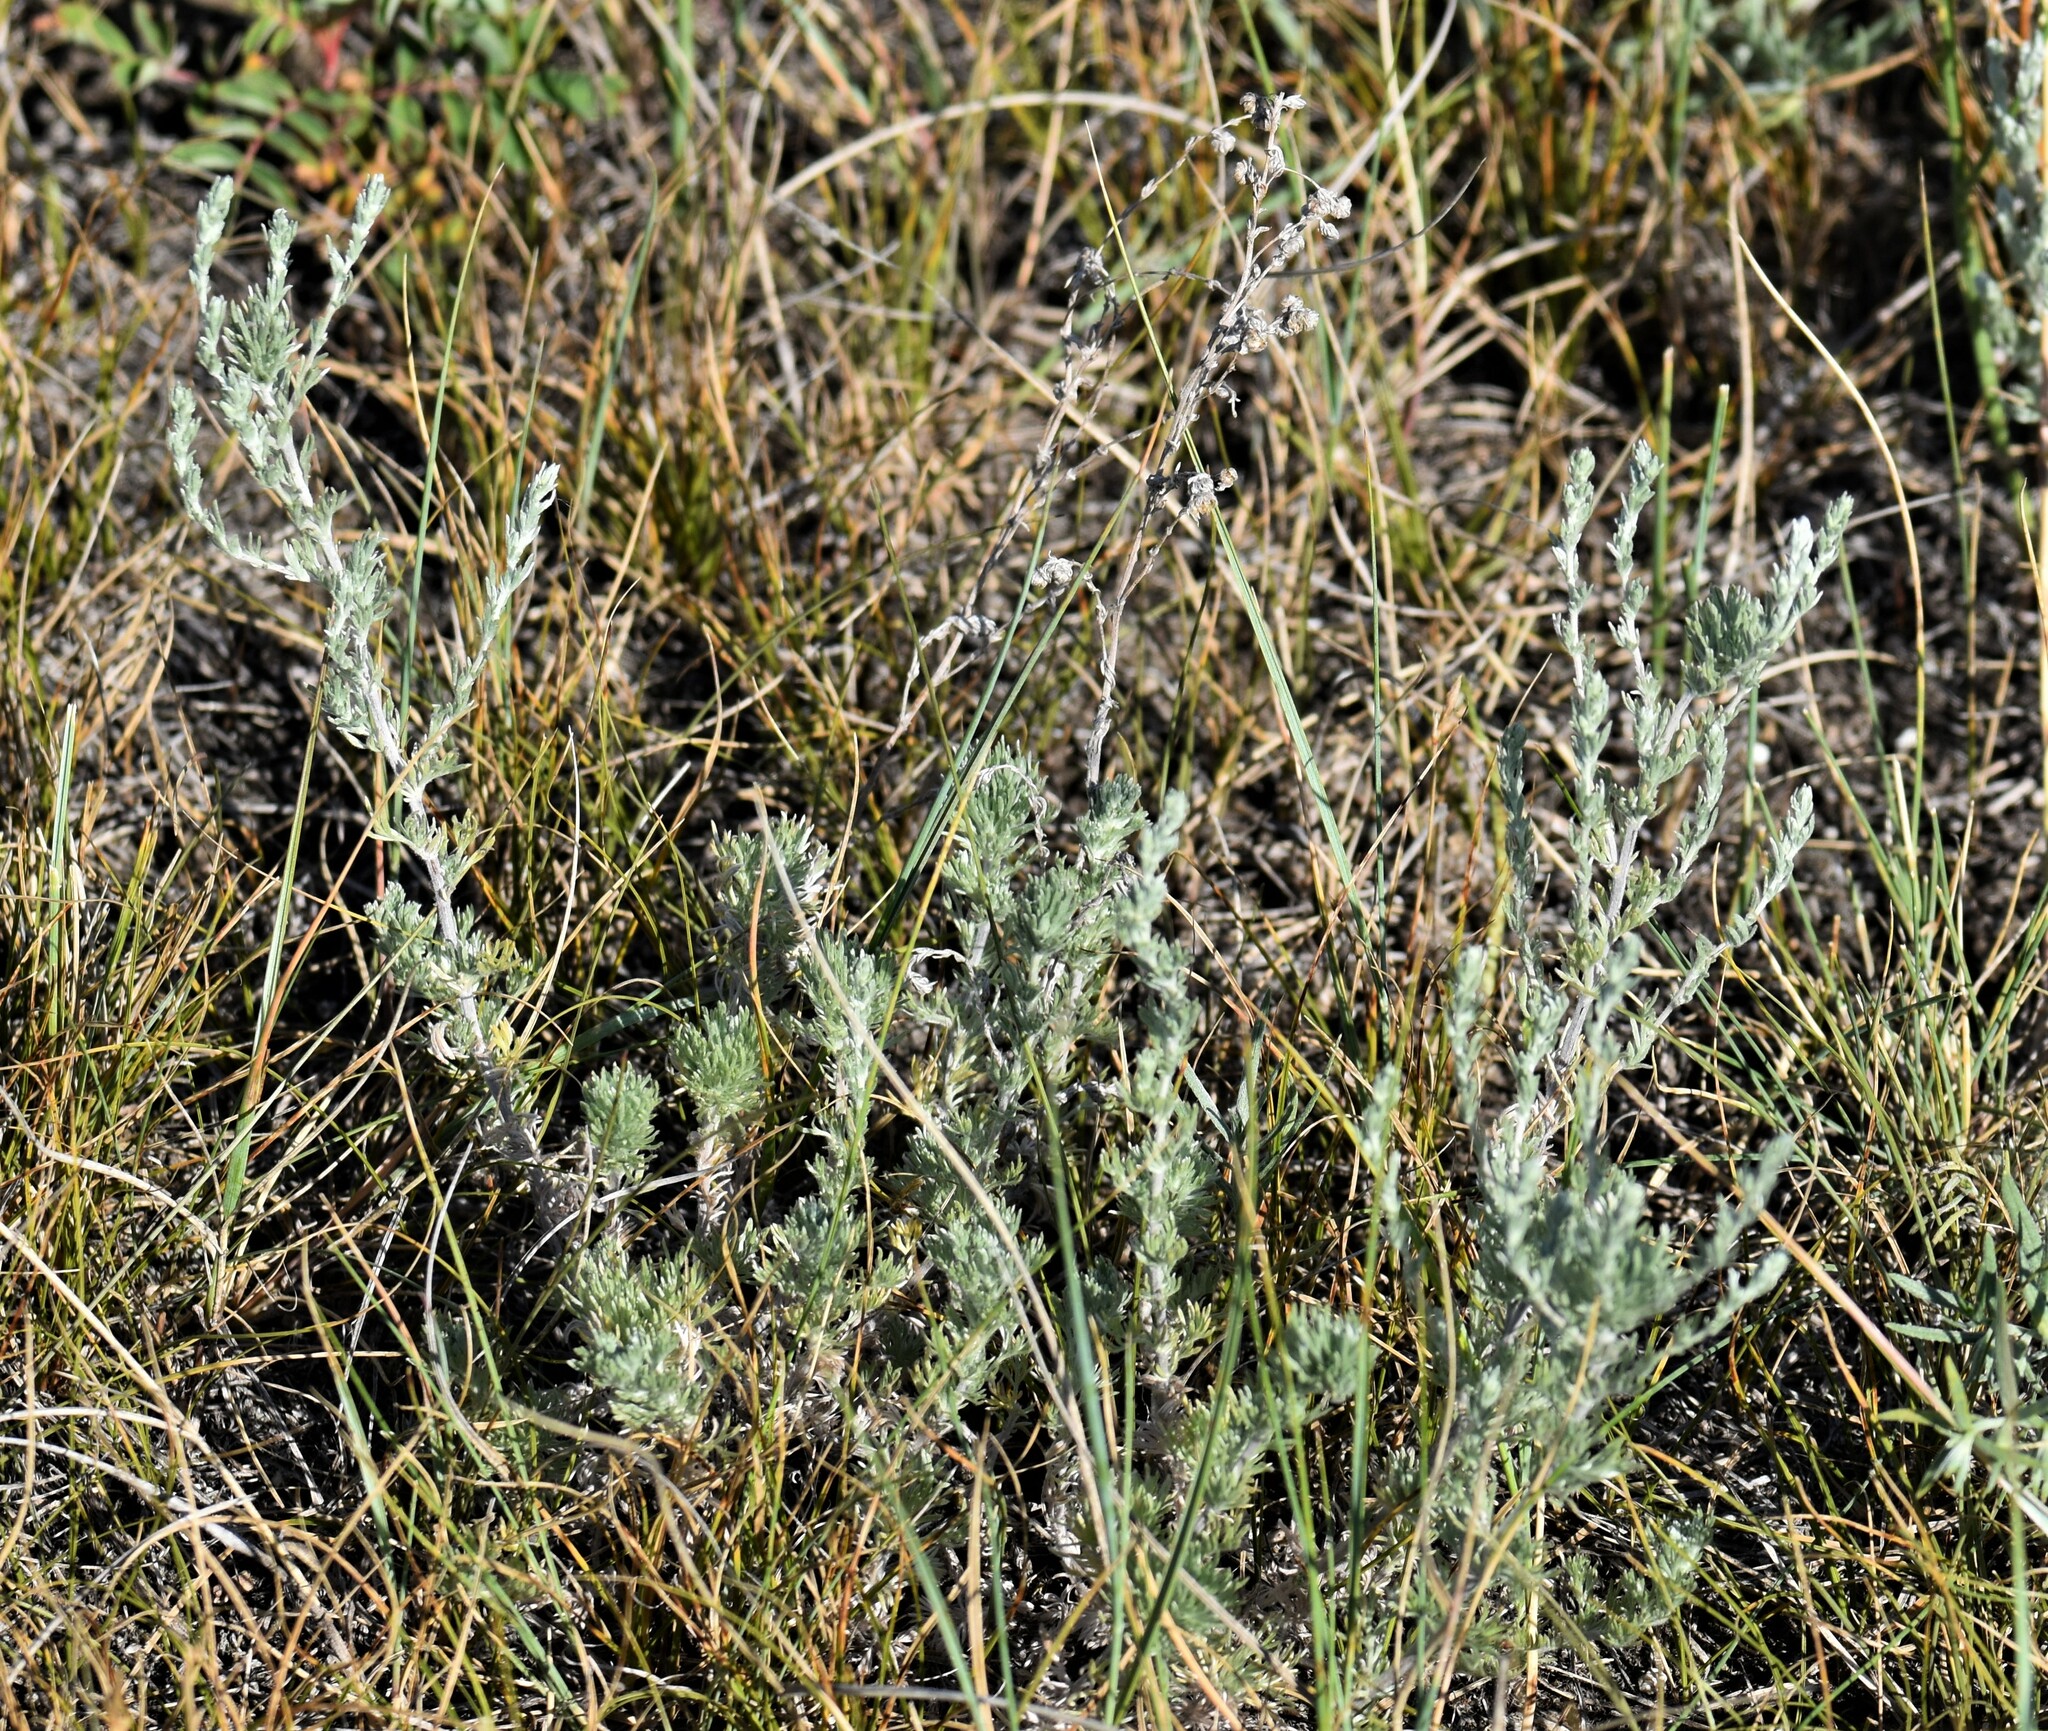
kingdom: Plantae
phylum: Tracheophyta
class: Magnoliopsida
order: Asterales
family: Asteraceae
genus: Artemisia
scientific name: Artemisia frigida
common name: Prairie sagewort
